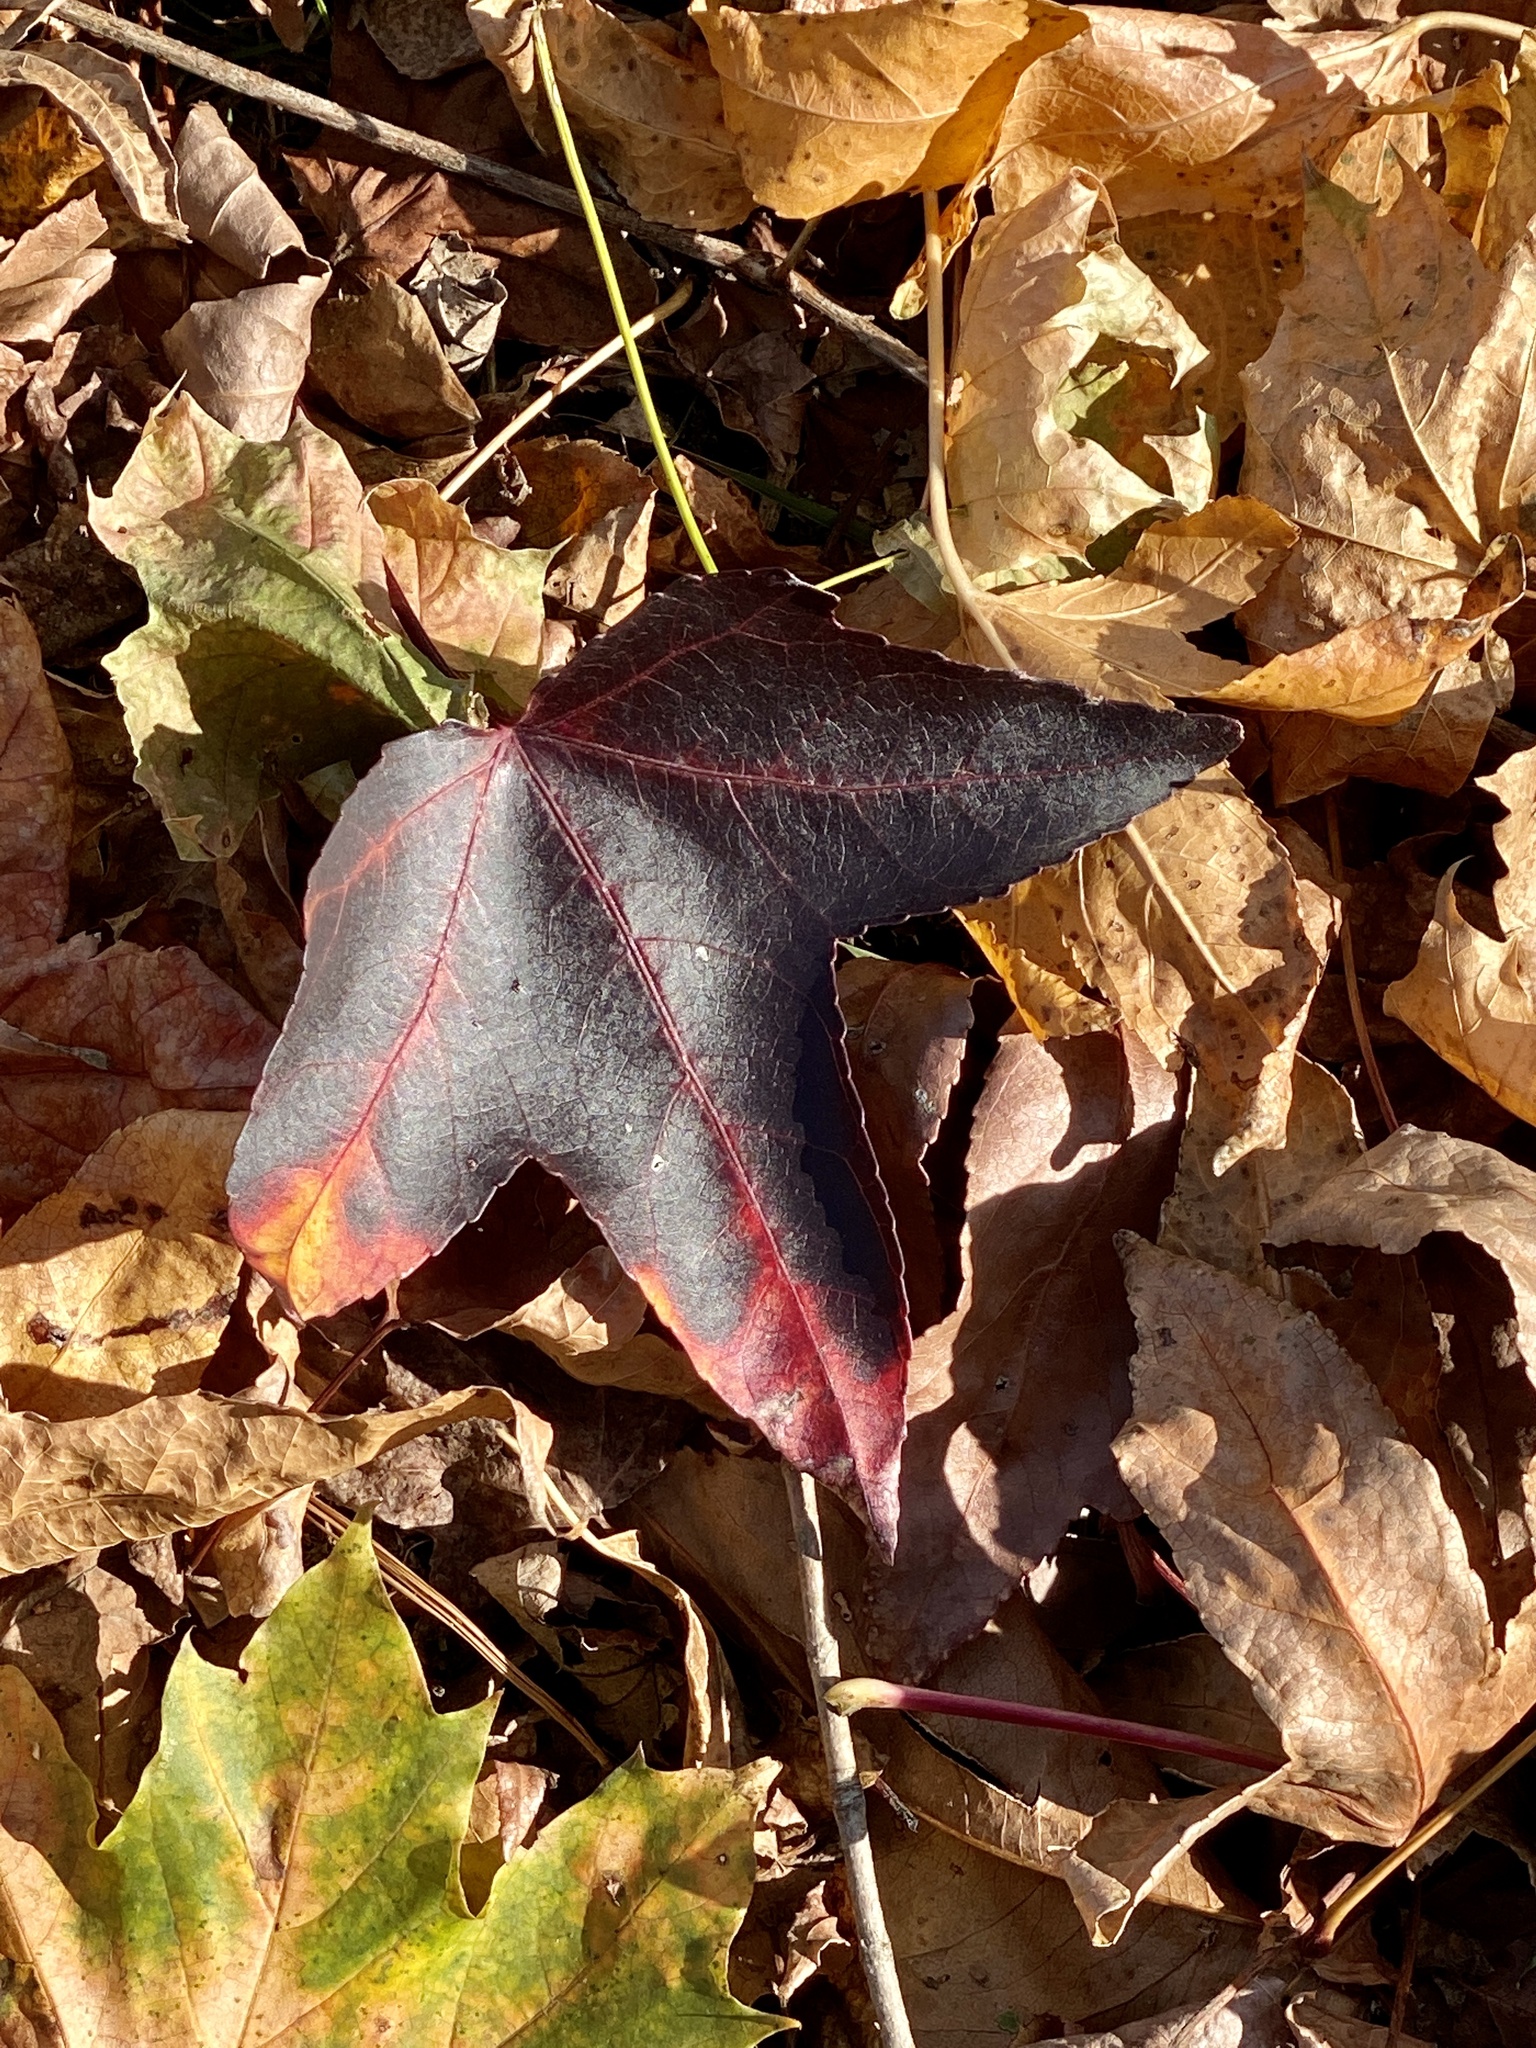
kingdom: Plantae
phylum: Tracheophyta
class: Magnoliopsida
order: Saxifragales
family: Altingiaceae
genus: Liquidambar
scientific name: Liquidambar styraciflua
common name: Sweet gum
